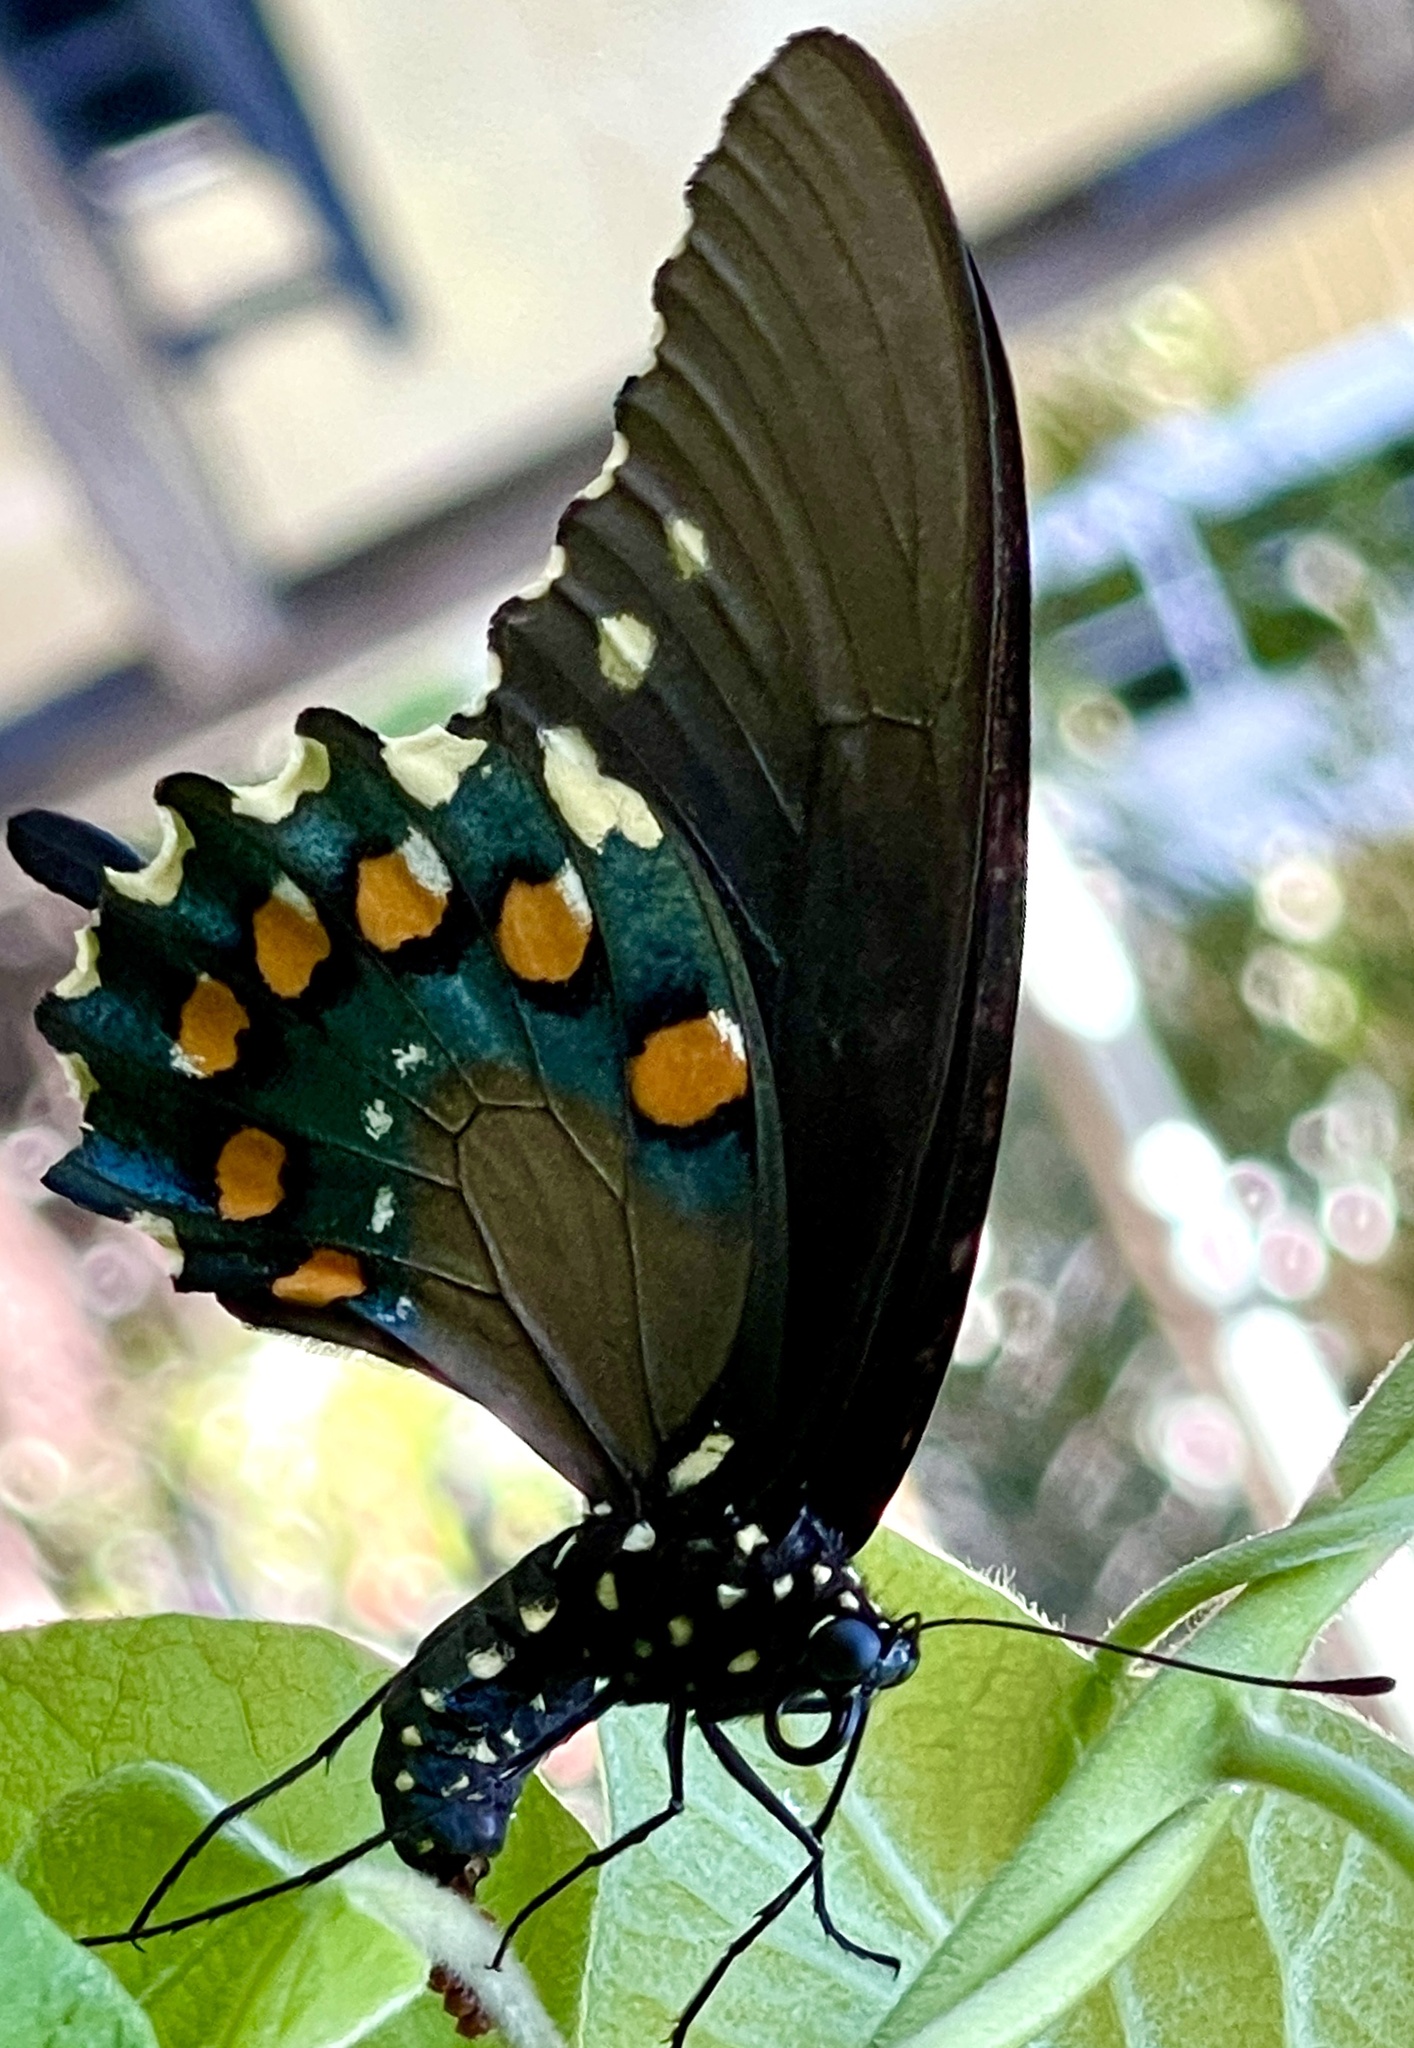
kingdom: Animalia
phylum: Arthropoda
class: Insecta
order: Lepidoptera
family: Papilionidae
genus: Battus
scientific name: Battus philenor
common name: Pipevine swallowtail
